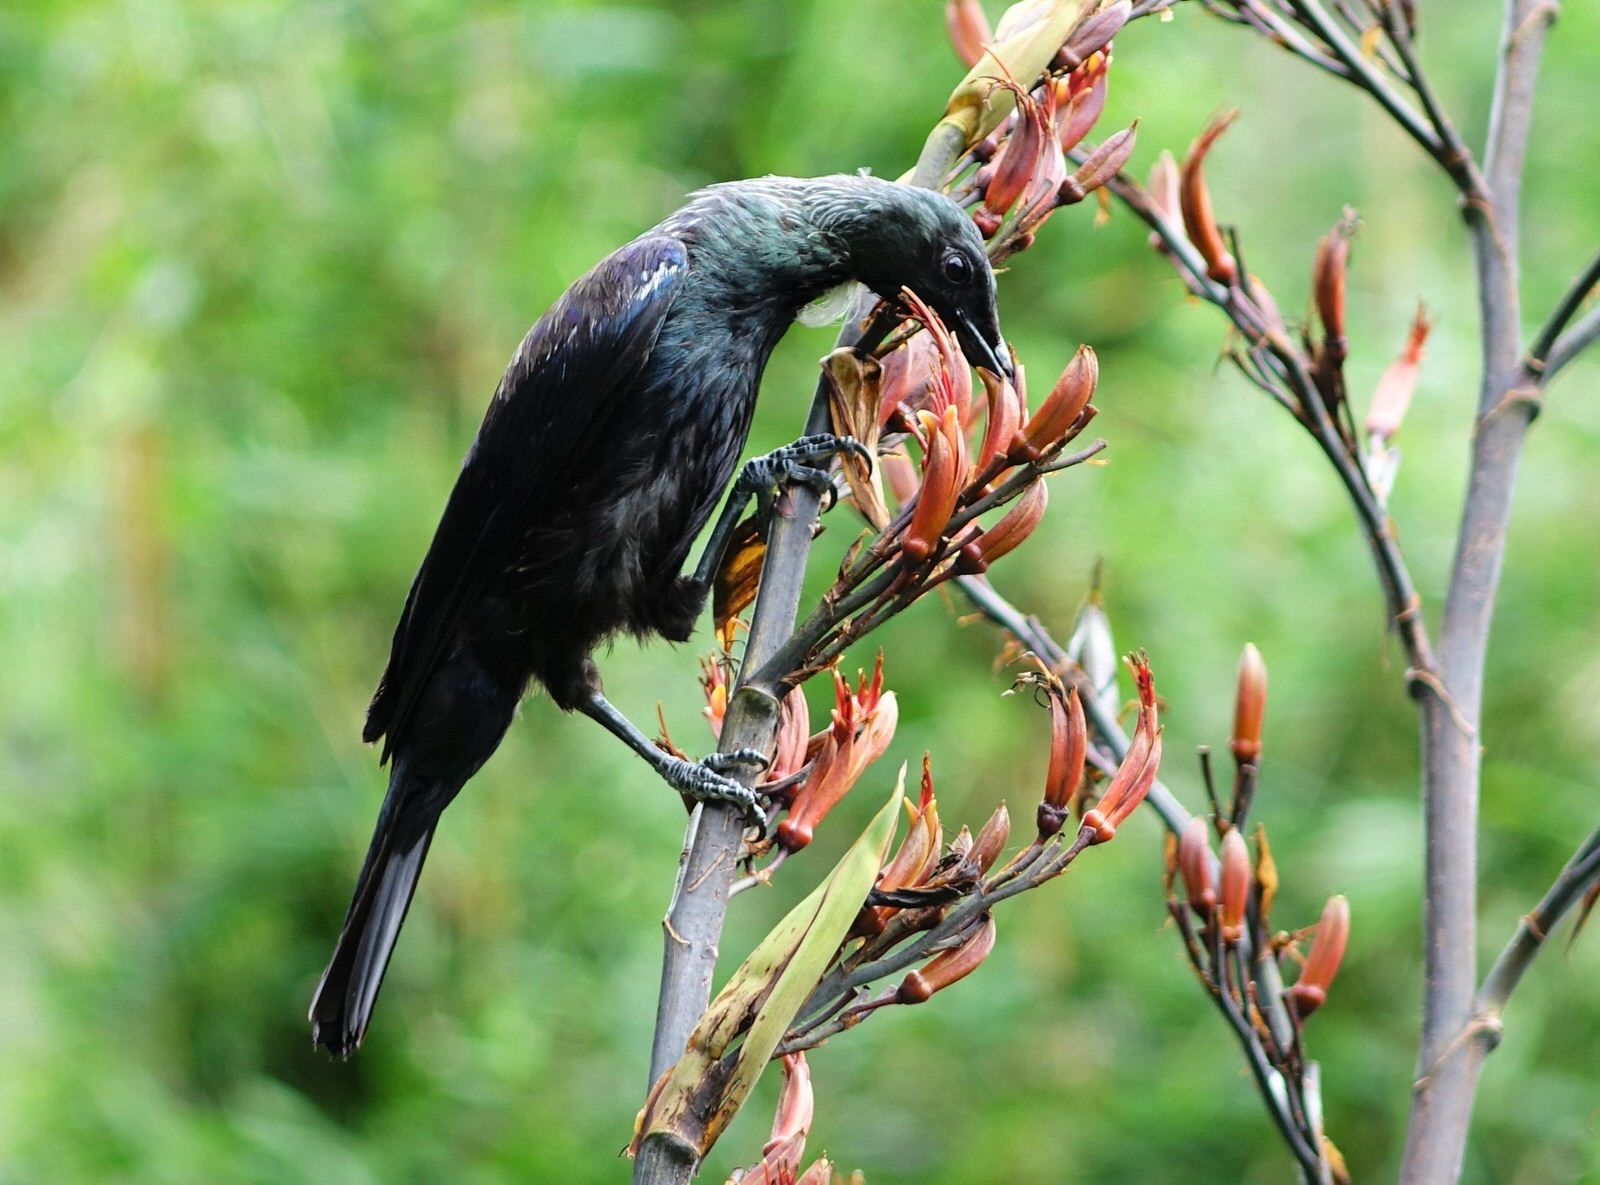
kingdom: Animalia
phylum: Chordata
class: Aves
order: Passeriformes
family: Meliphagidae
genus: Prosthemadera
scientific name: Prosthemadera novaeseelandiae
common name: Tui
